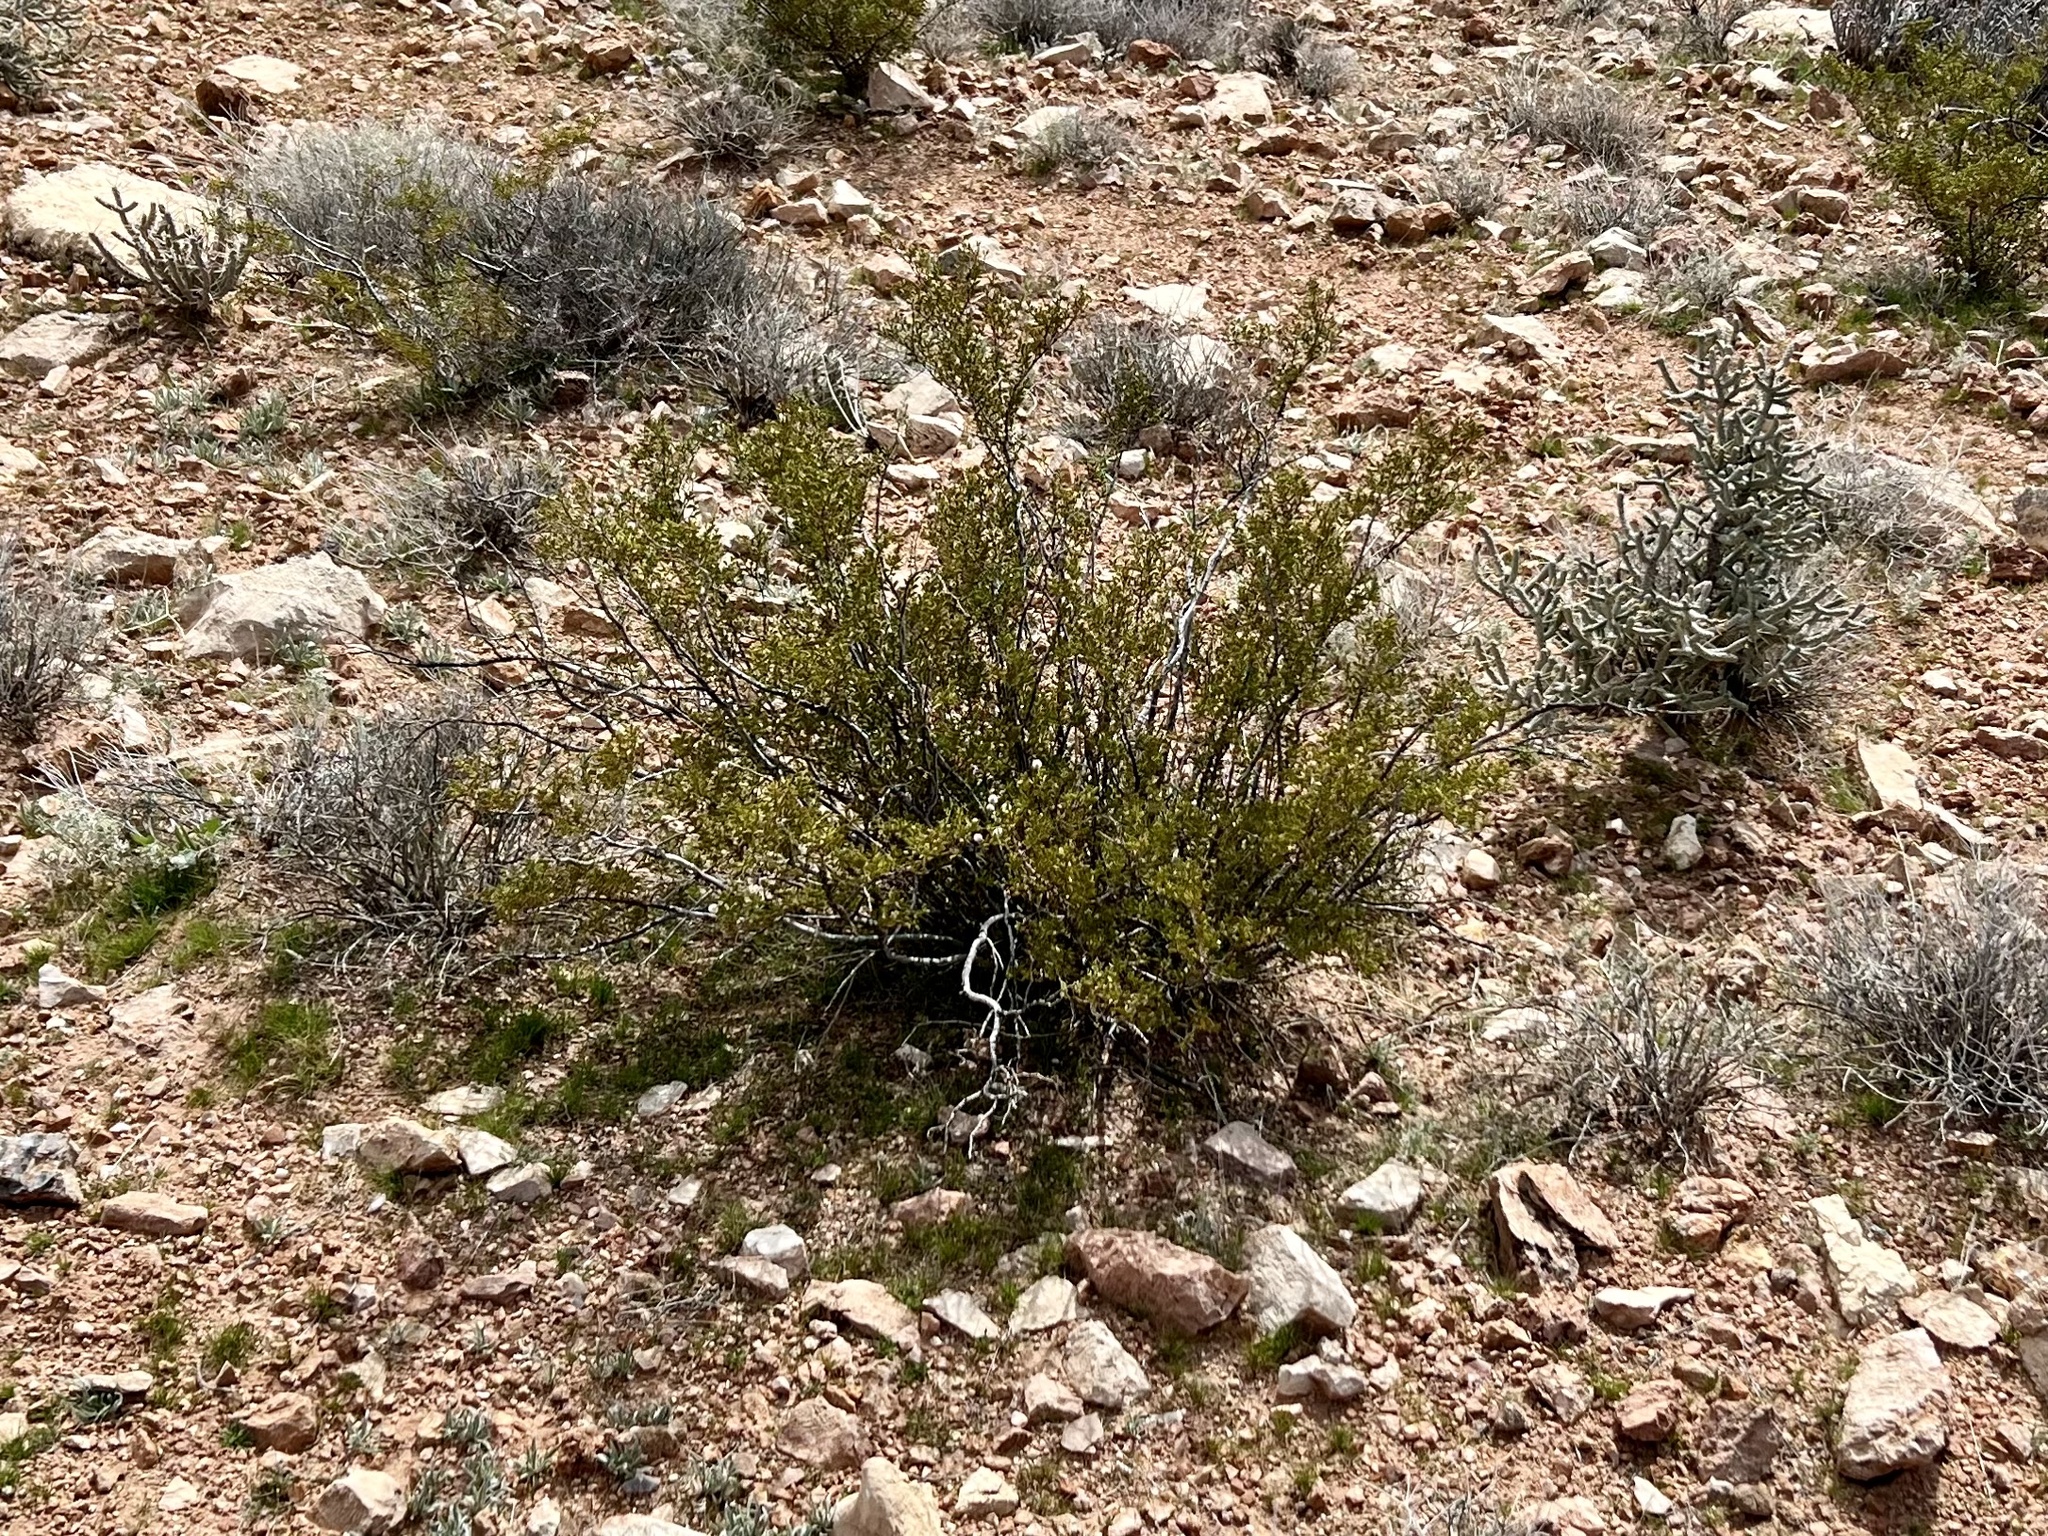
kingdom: Plantae
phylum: Tracheophyta
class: Magnoliopsida
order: Zygophyllales
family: Zygophyllaceae
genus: Larrea
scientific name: Larrea tridentata
